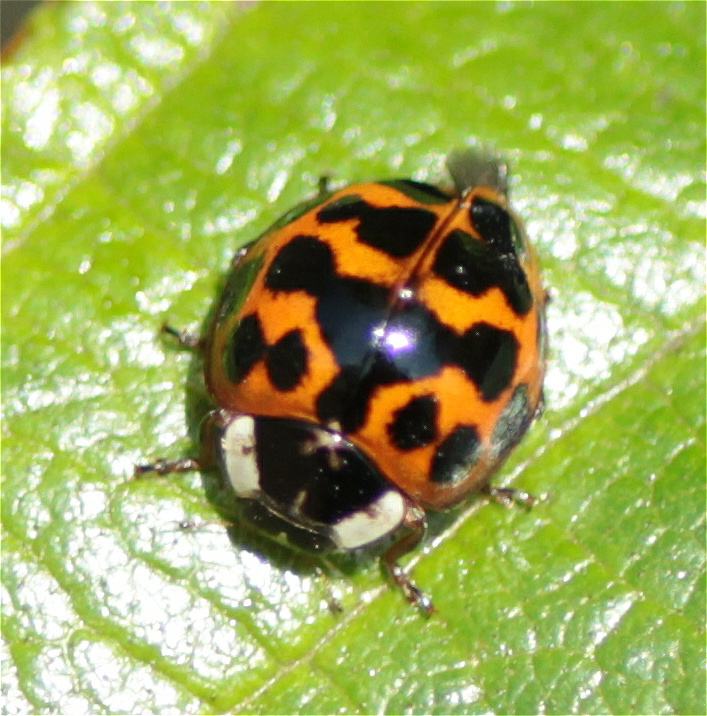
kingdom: Animalia
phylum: Arthropoda
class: Insecta
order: Coleoptera
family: Coccinellidae
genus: Harmonia
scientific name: Harmonia axyridis
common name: Harlequin ladybird
